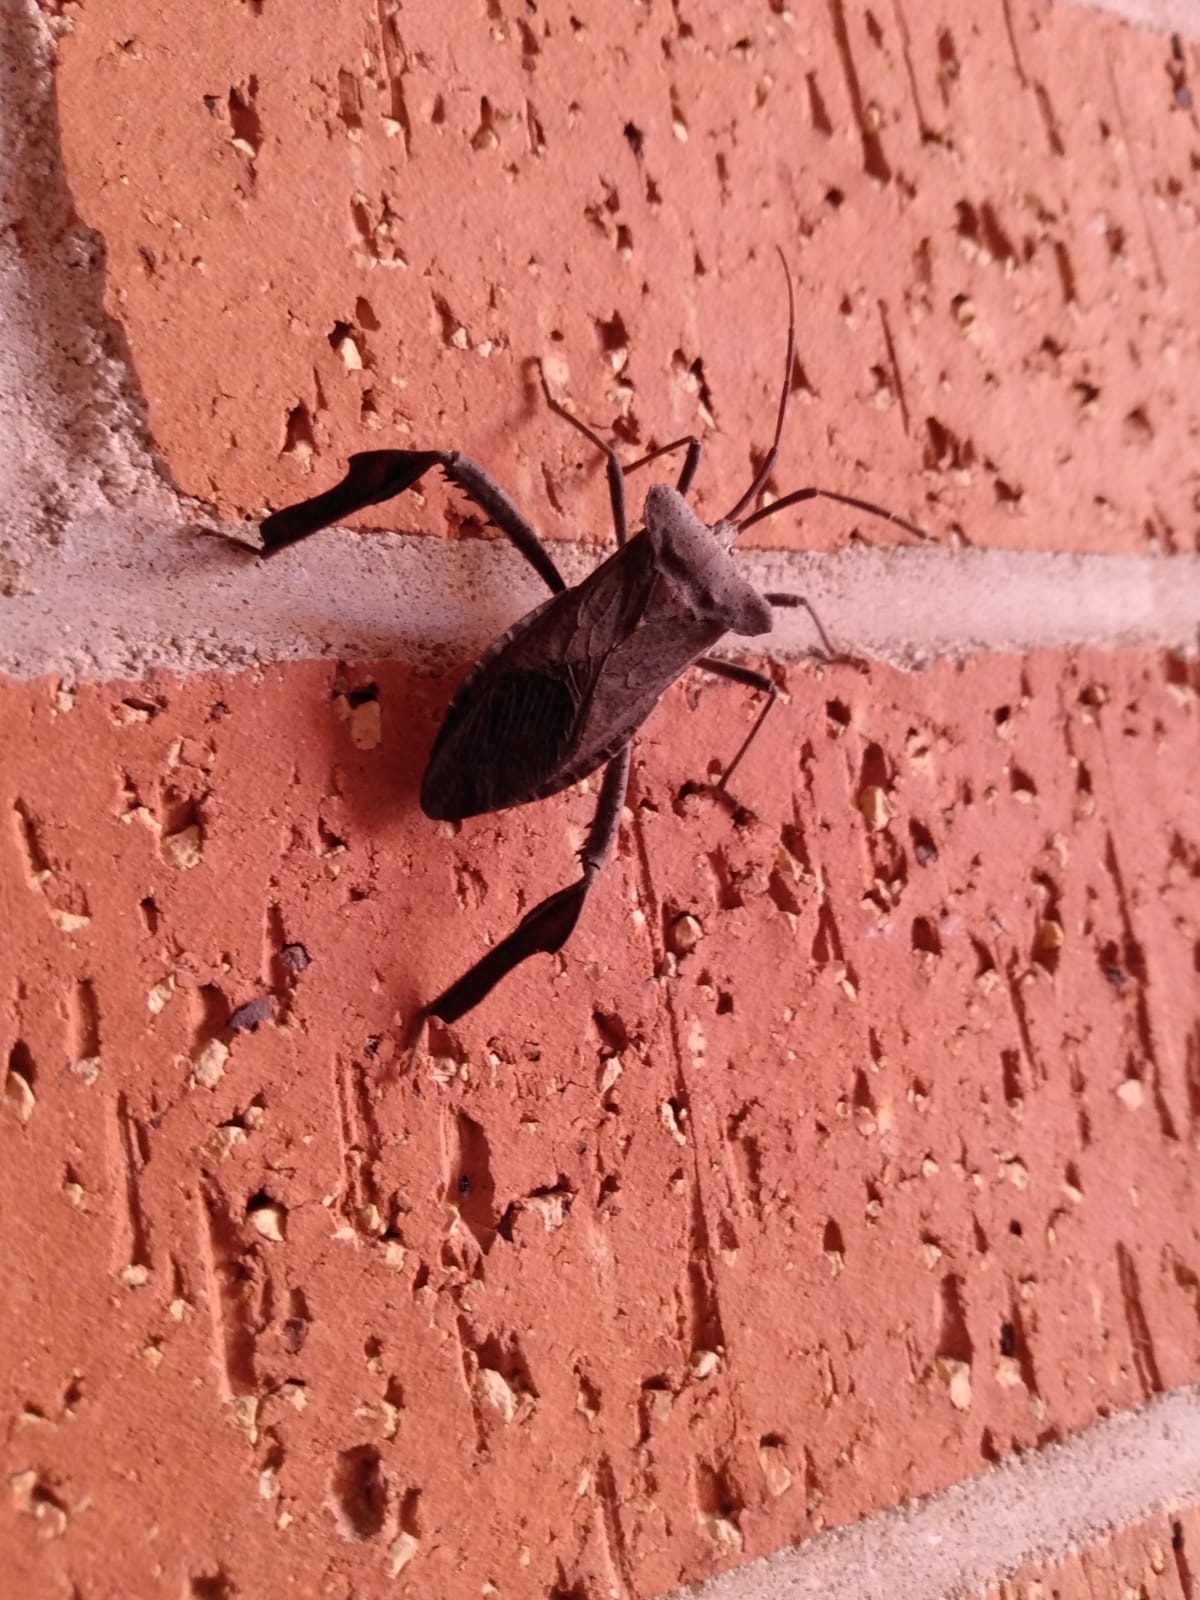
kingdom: Animalia
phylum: Arthropoda
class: Insecta
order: Hemiptera
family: Coreidae
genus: Acanthocephala
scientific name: Acanthocephala declivis
